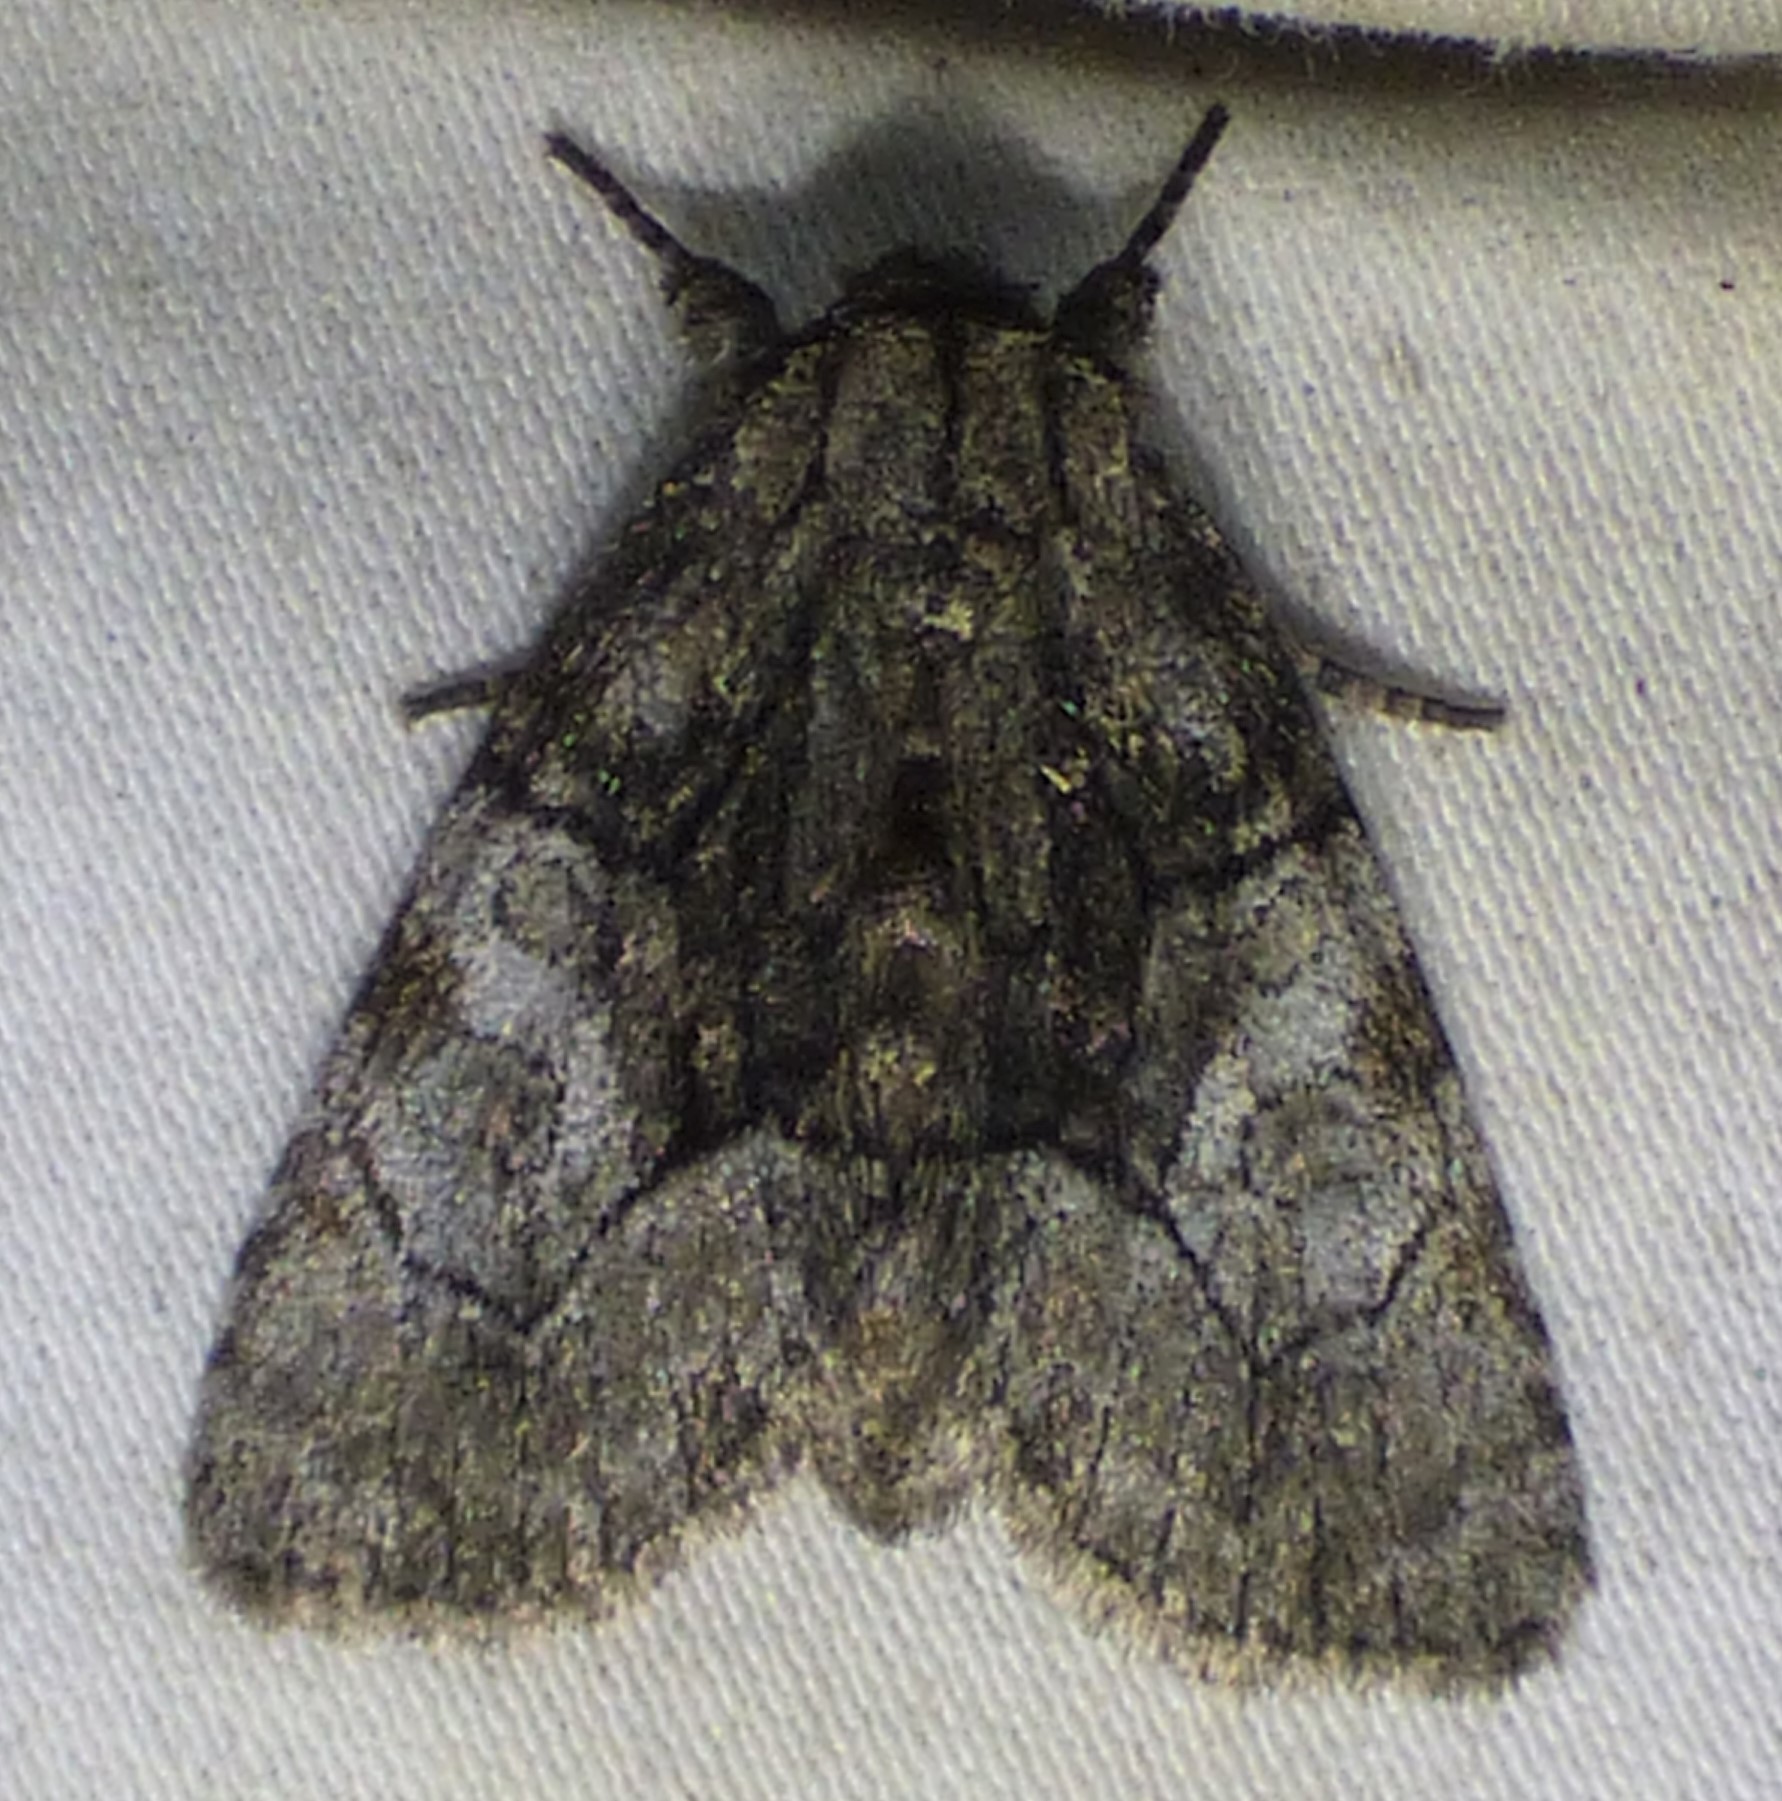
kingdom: Animalia
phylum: Arthropoda
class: Insecta
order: Lepidoptera
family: Noctuidae
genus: Raphia
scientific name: Raphia frater
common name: Brother
